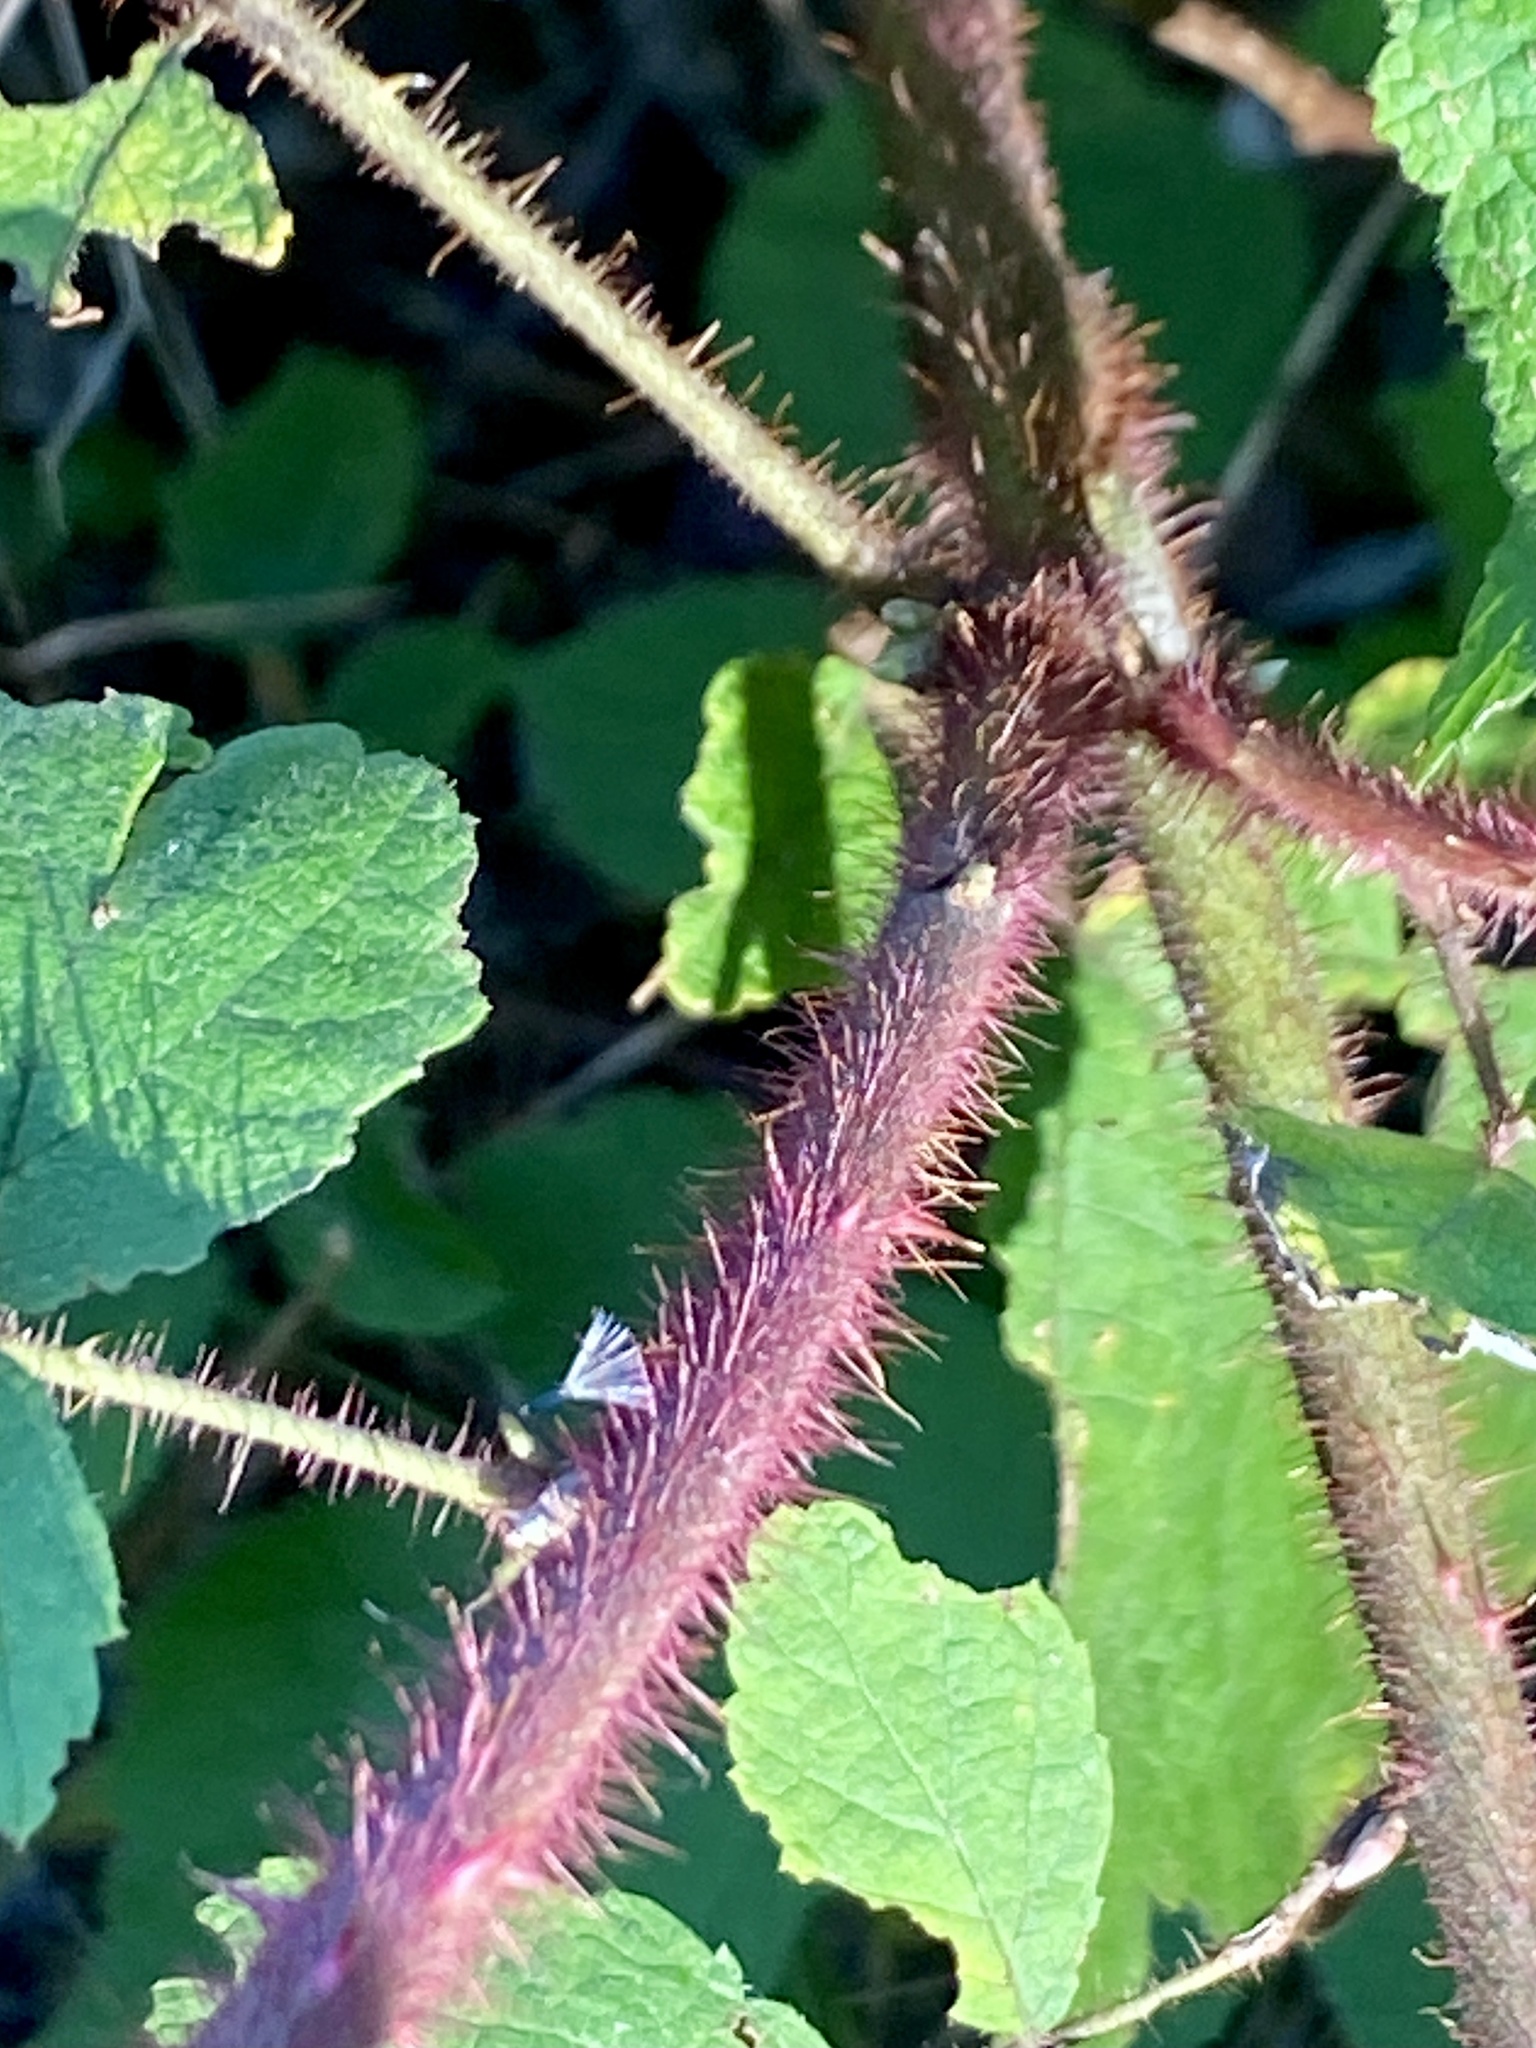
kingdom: Plantae
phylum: Tracheophyta
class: Magnoliopsida
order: Rosales
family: Rosaceae
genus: Rubus
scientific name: Rubus phoenicolasius
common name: Japanese wineberry
